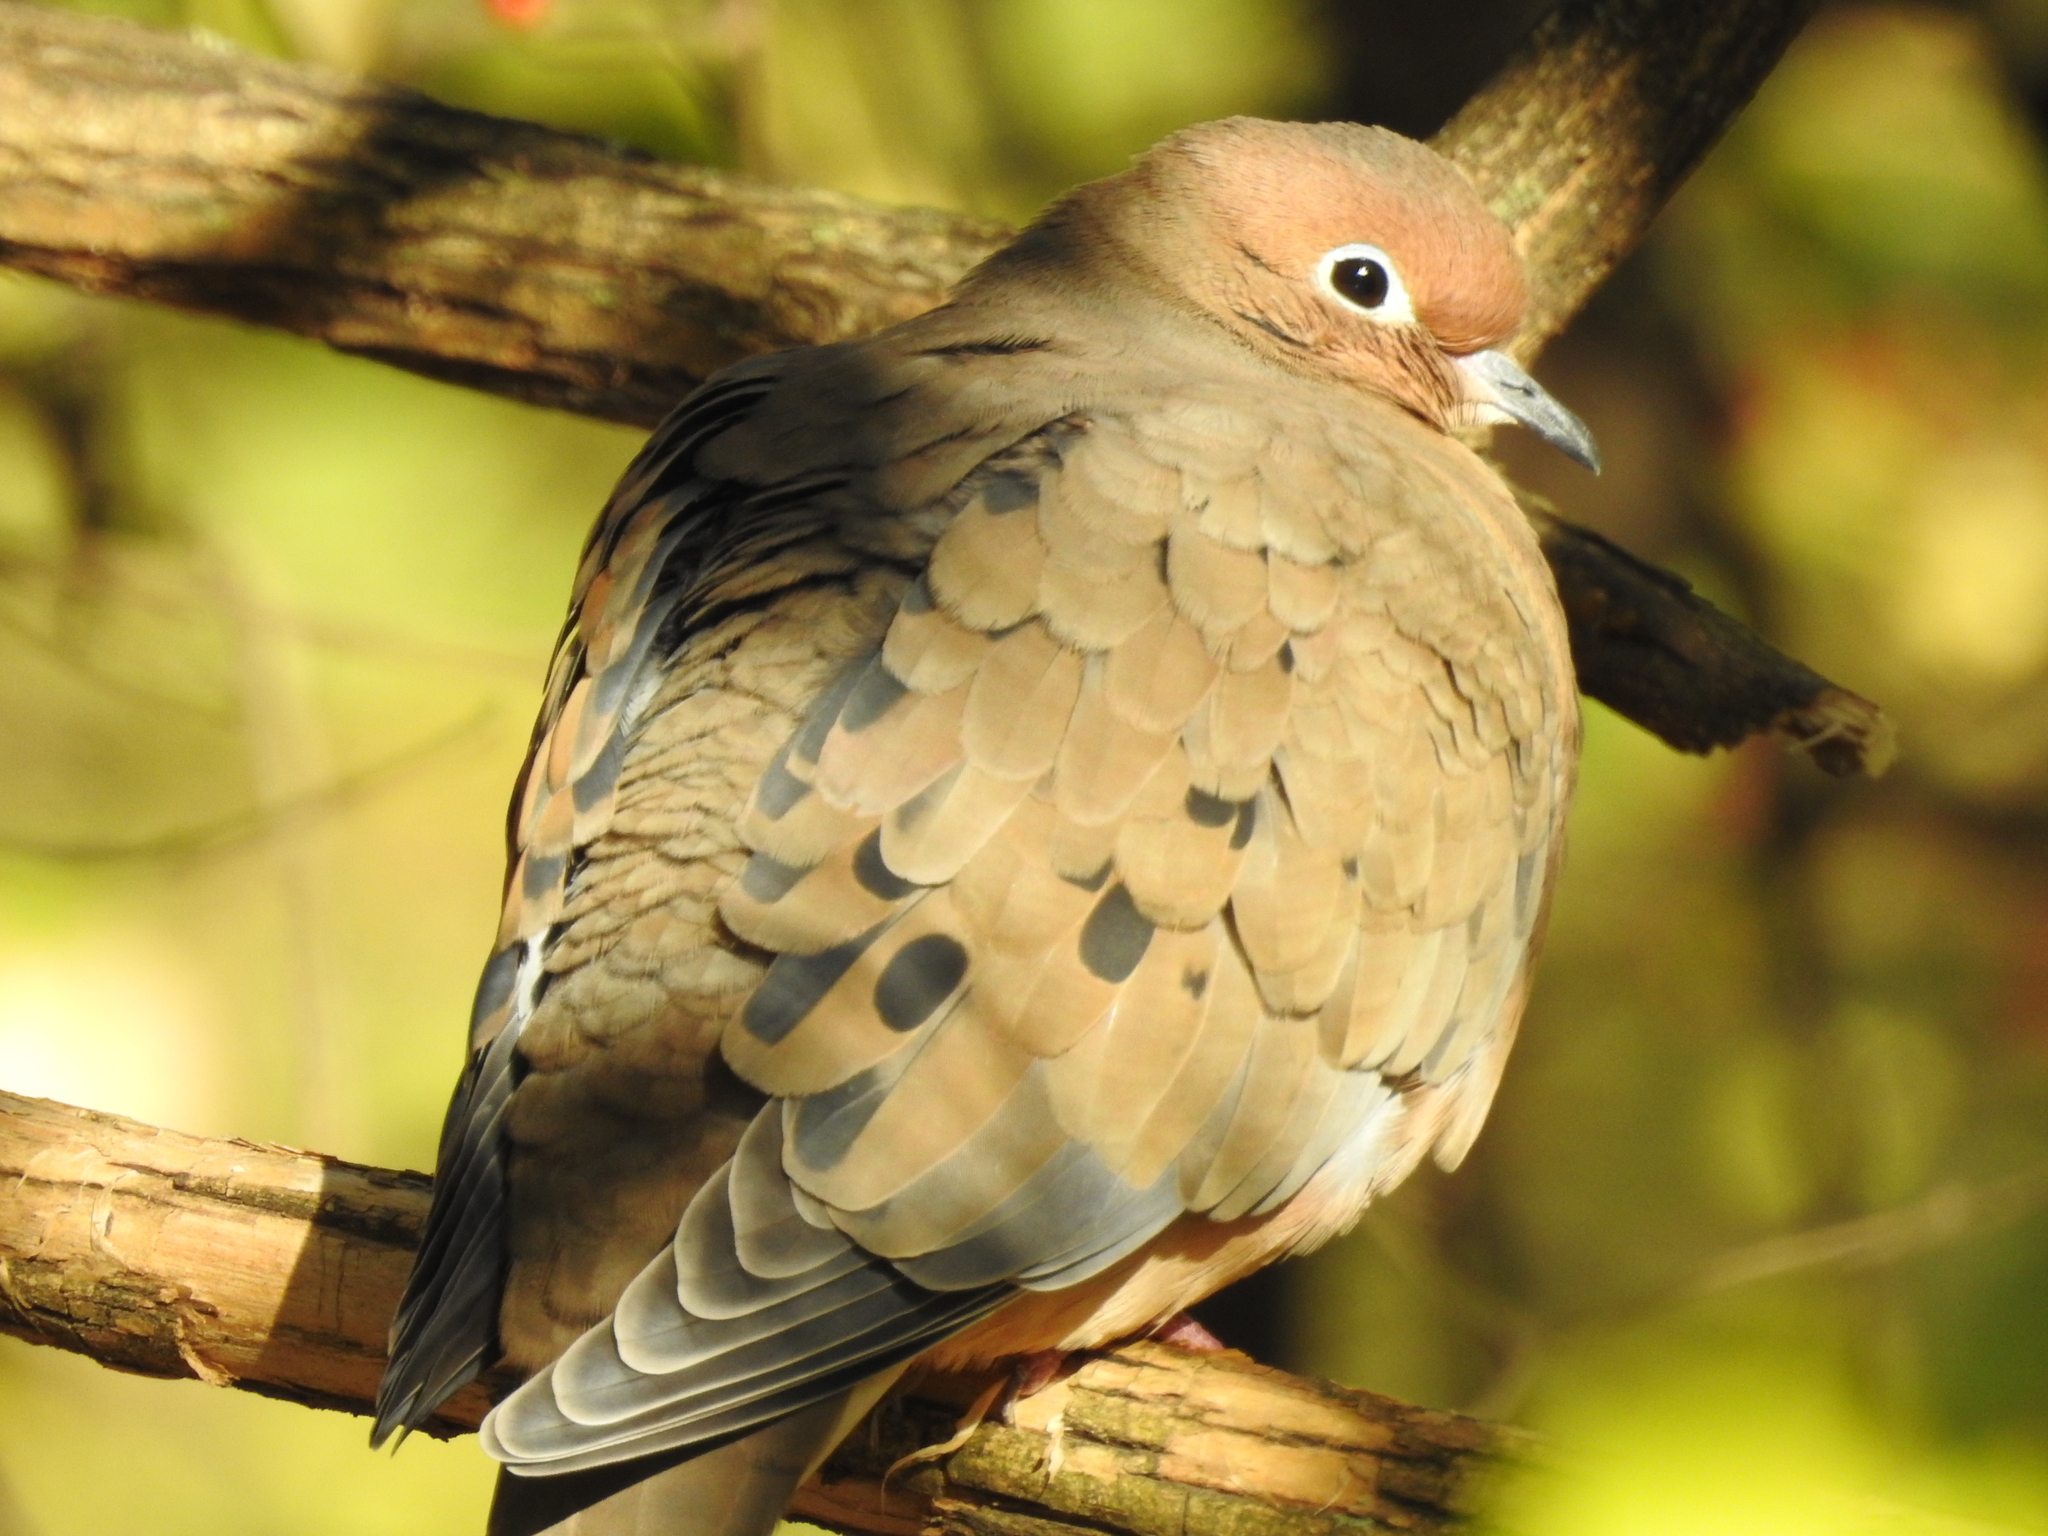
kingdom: Animalia
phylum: Chordata
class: Aves
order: Columbiformes
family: Columbidae
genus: Zenaida
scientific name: Zenaida macroura
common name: Mourning dove
